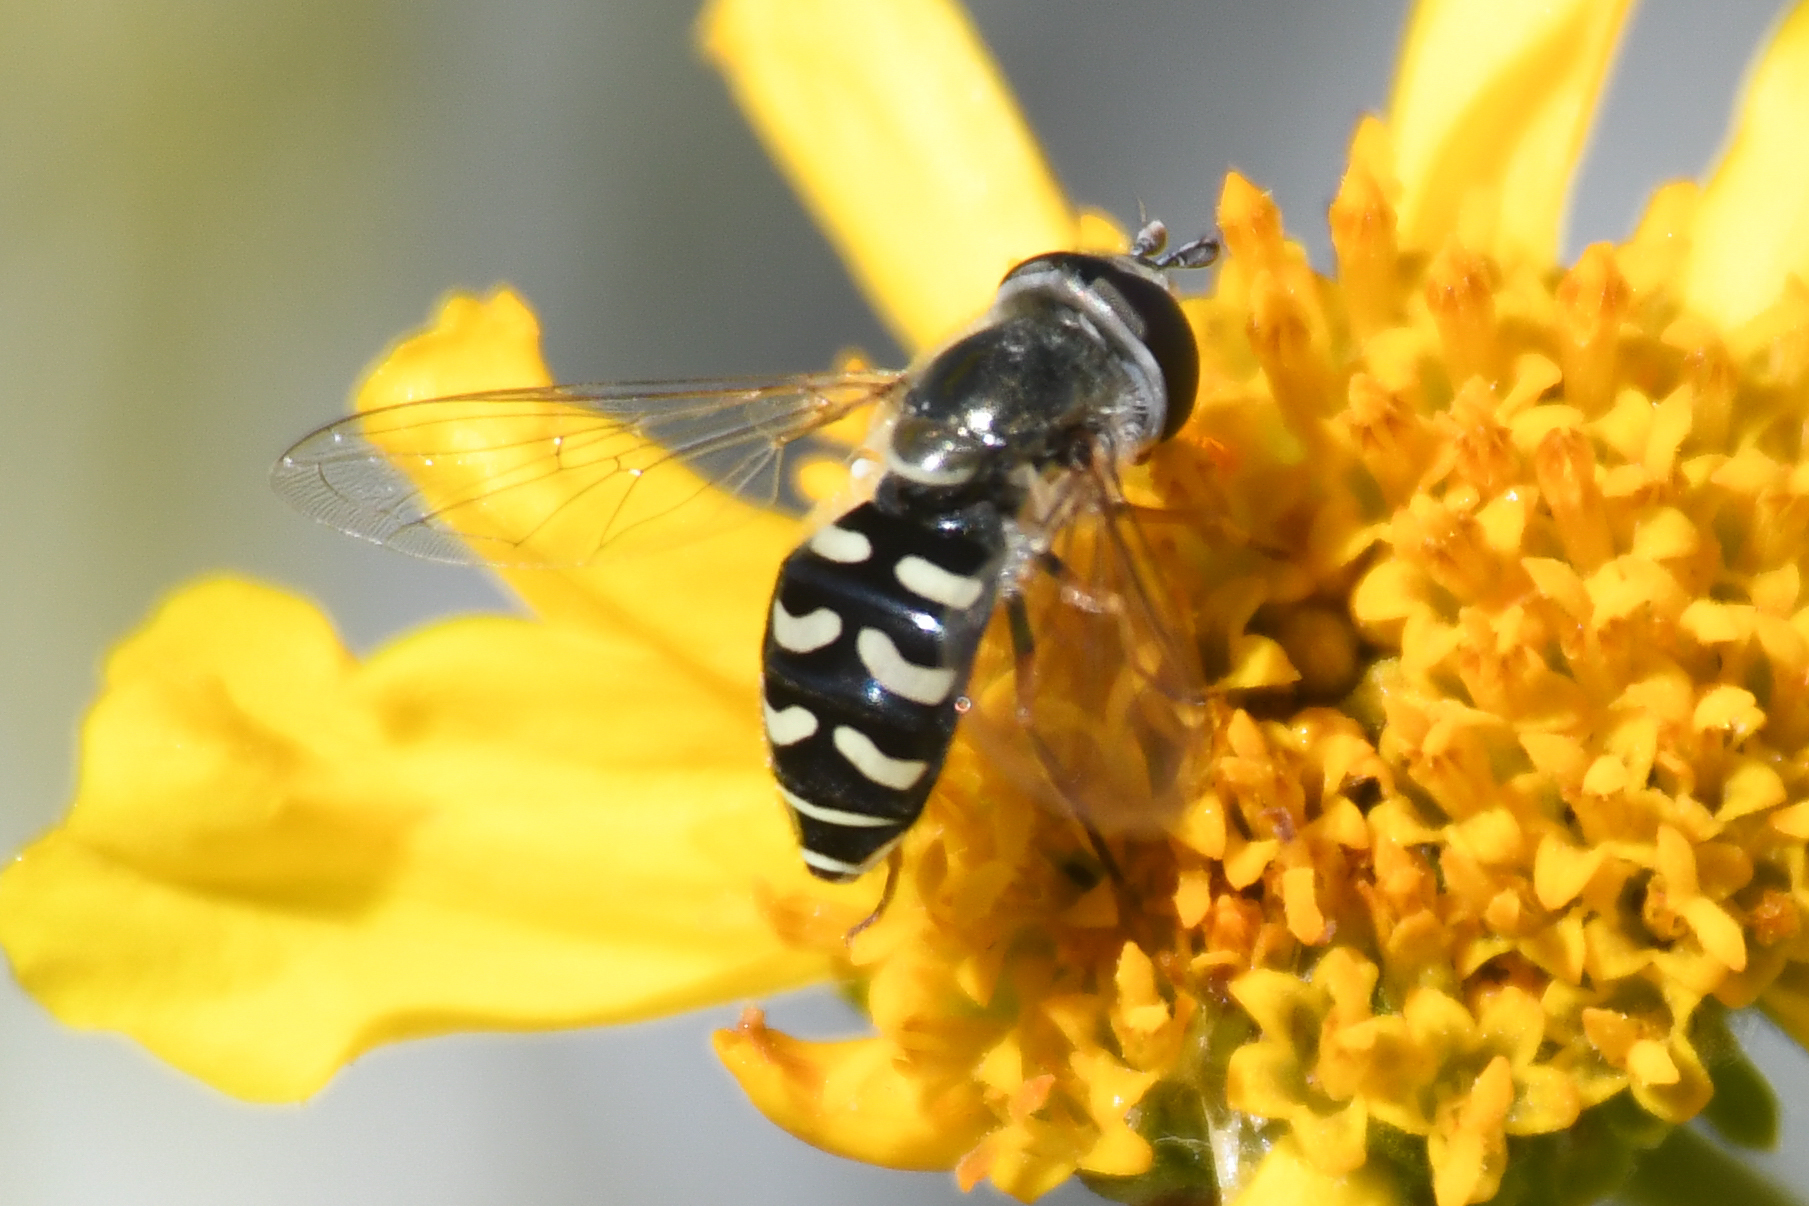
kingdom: Animalia
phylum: Arthropoda
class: Insecta
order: Diptera
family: Syrphidae
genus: Eupeodes
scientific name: Eupeodes volucris
